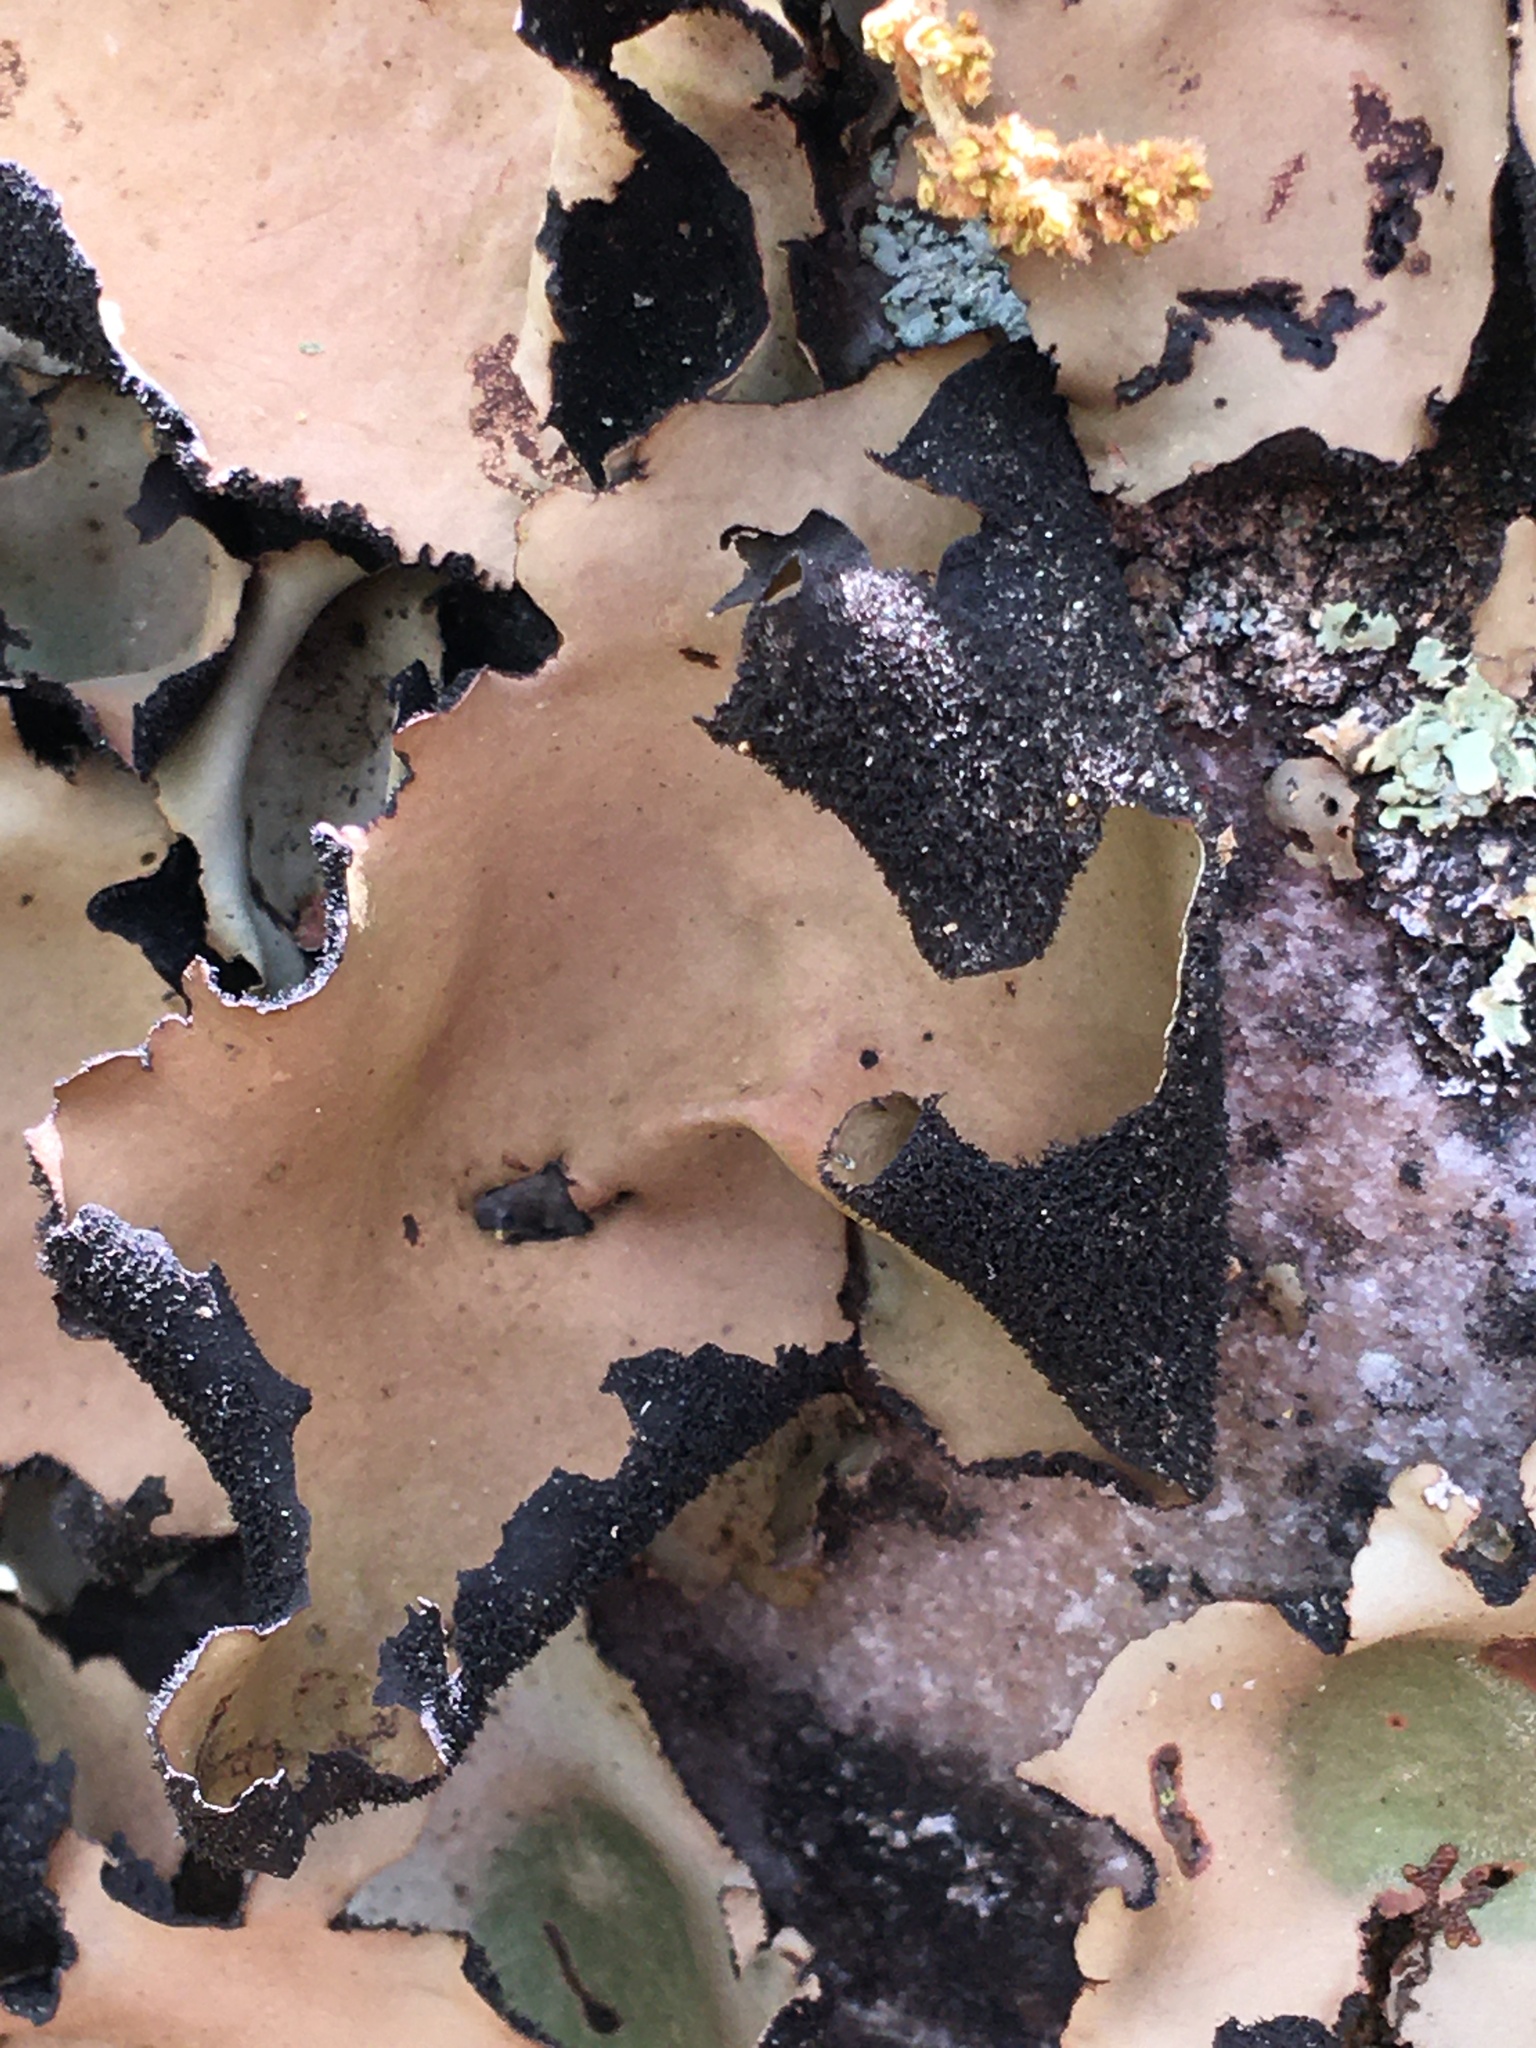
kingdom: Fungi
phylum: Ascomycota
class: Lecanoromycetes
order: Umbilicariales
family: Umbilicariaceae
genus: Umbilicaria
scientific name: Umbilicaria mammulata
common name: Smooth rock tripe
